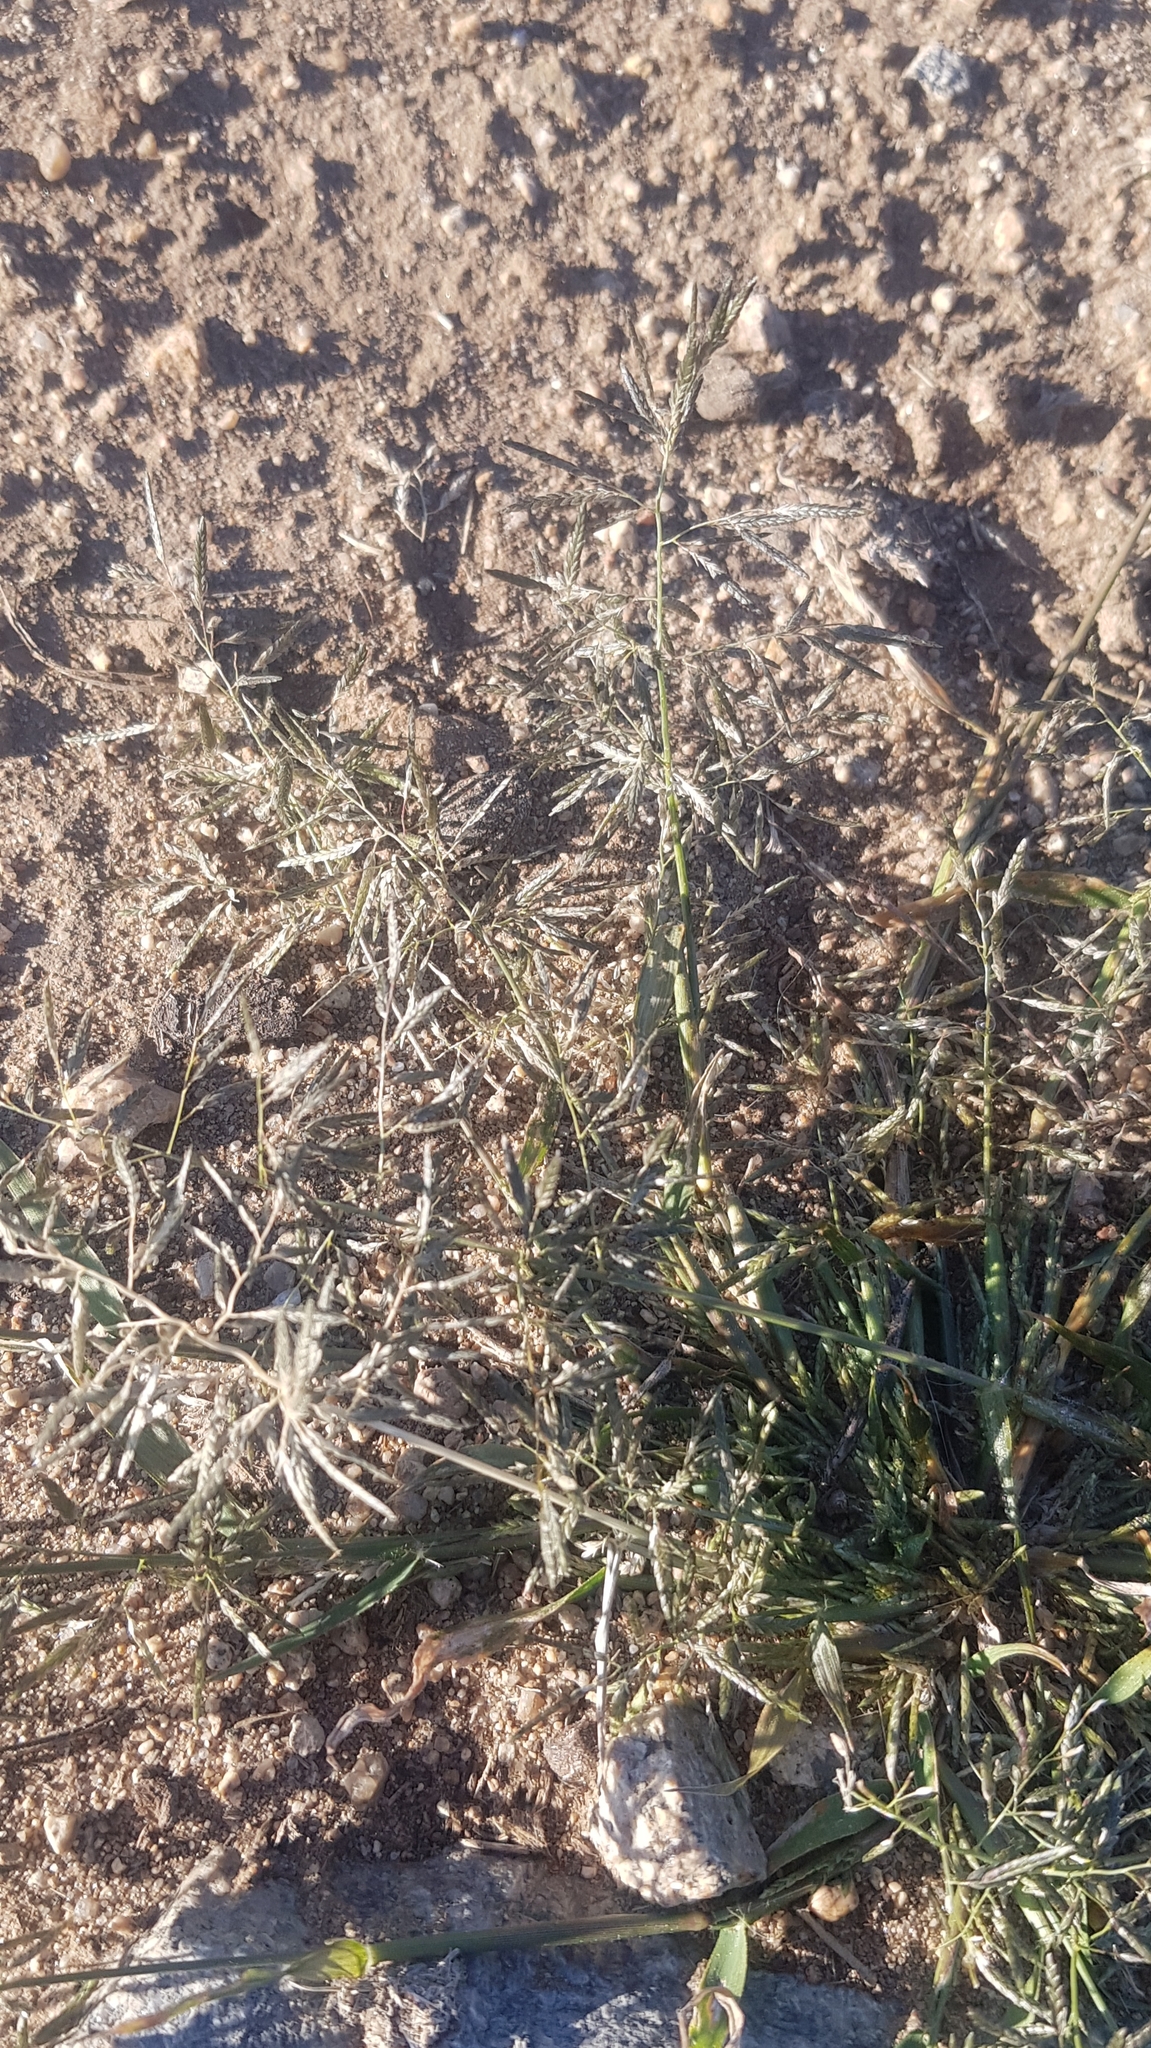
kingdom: Plantae
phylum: Tracheophyta
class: Liliopsida
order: Poales
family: Poaceae
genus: Eragrostis
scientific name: Eragrostis minor
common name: Small love-grass
